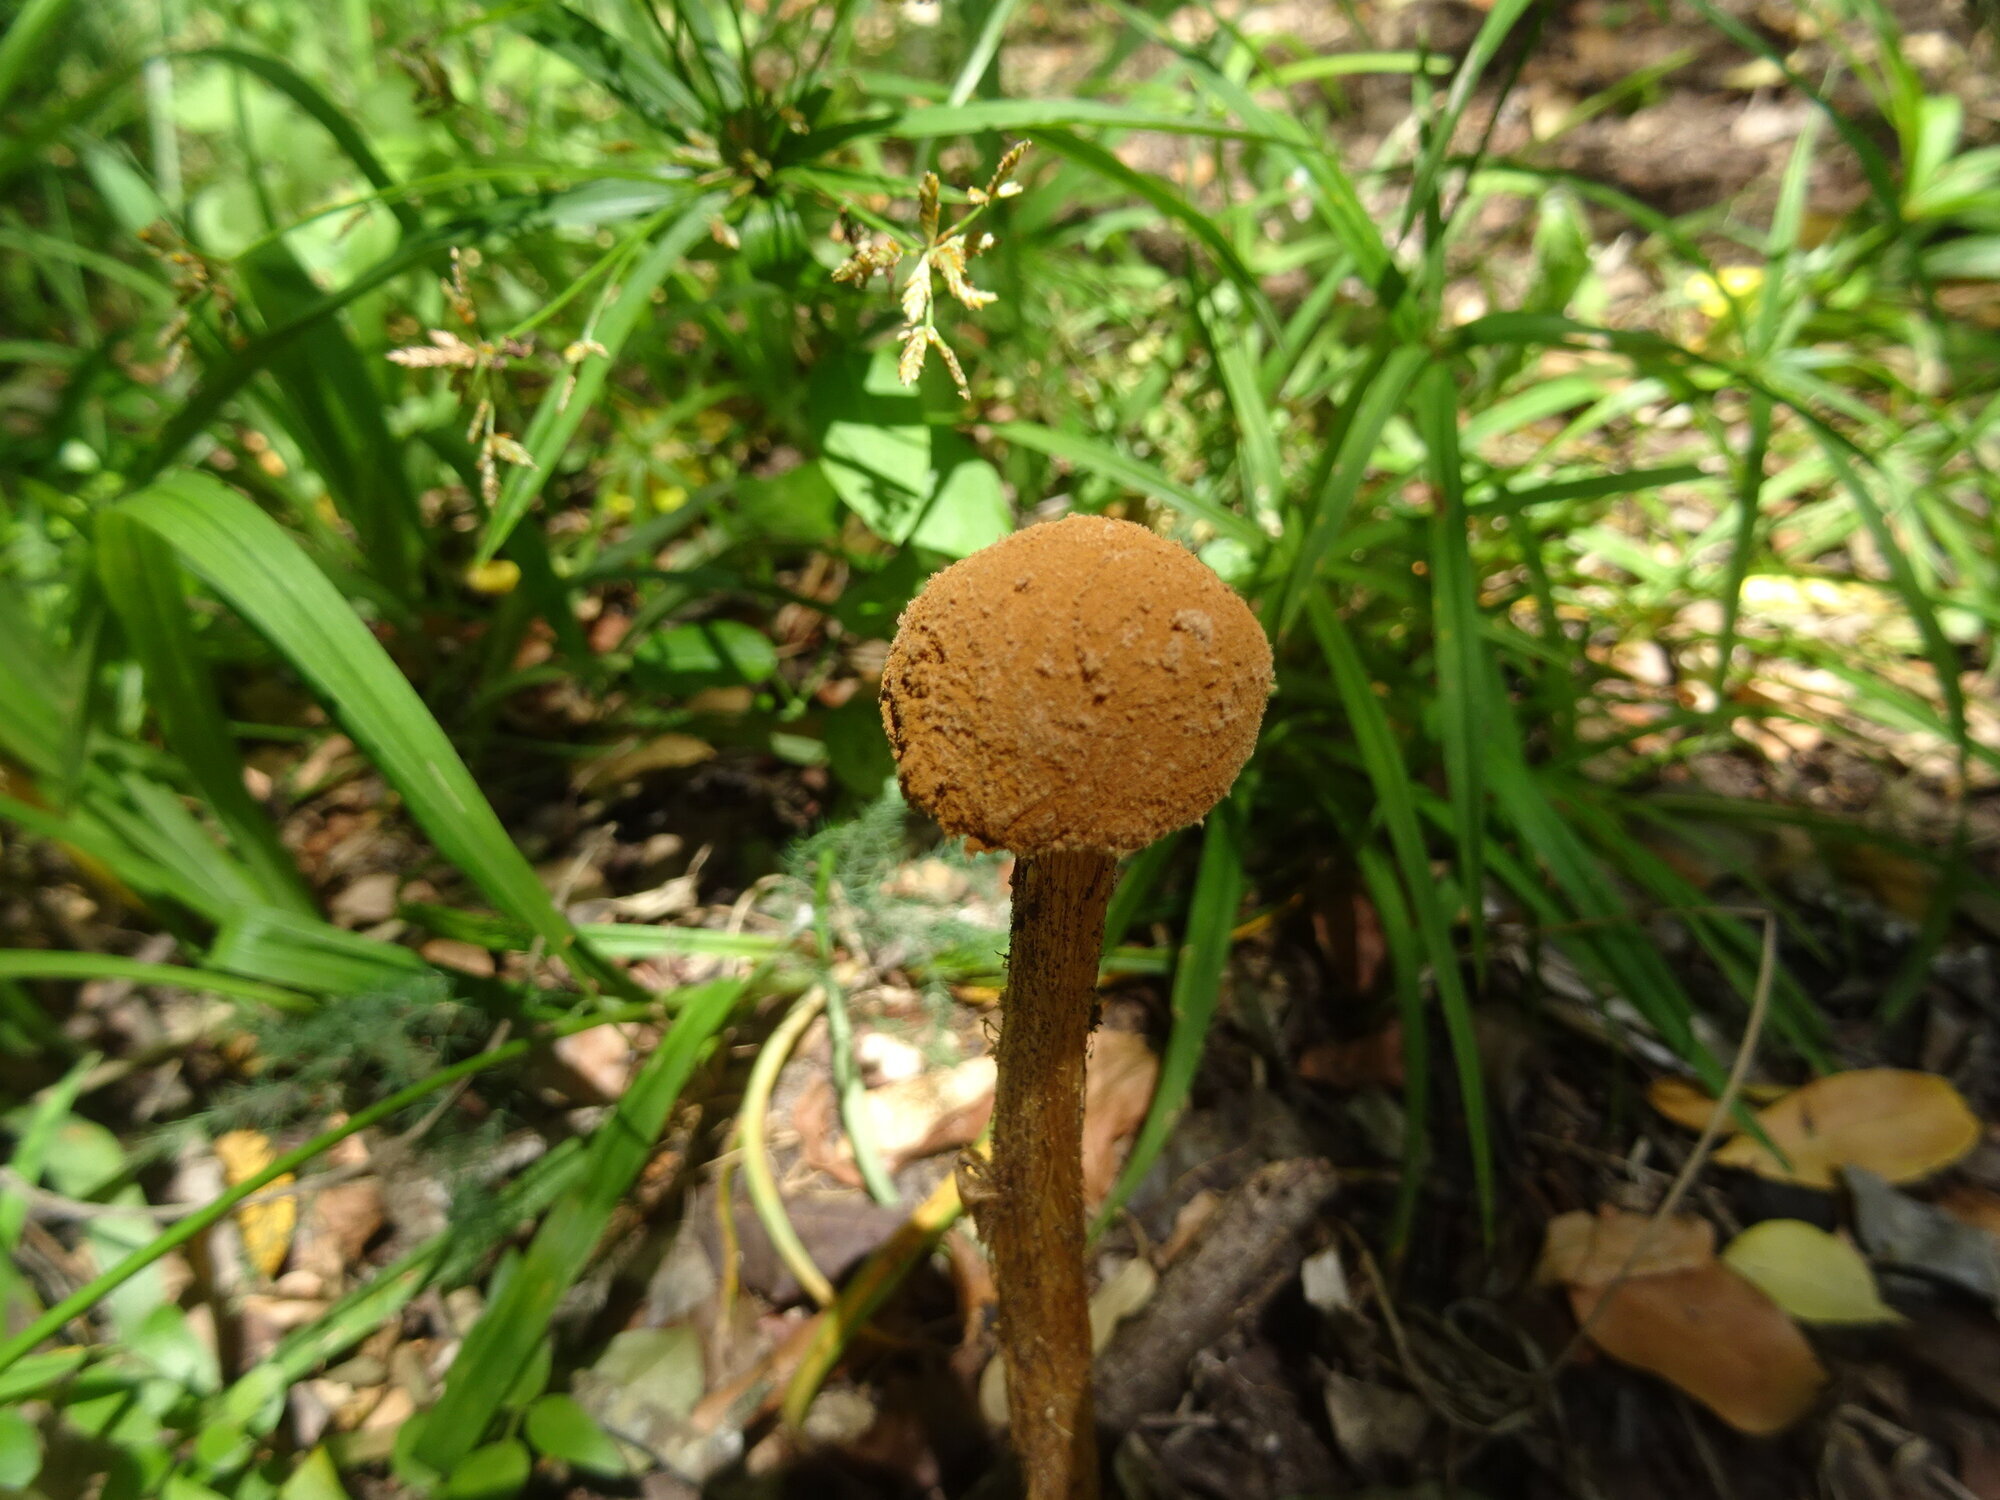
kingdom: Fungi
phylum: Basidiomycota
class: Agaricomycetes
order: Agaricales
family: Agaricaceae
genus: Battarrea
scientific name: Battarrea phalloides
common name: Sandy stiltball
